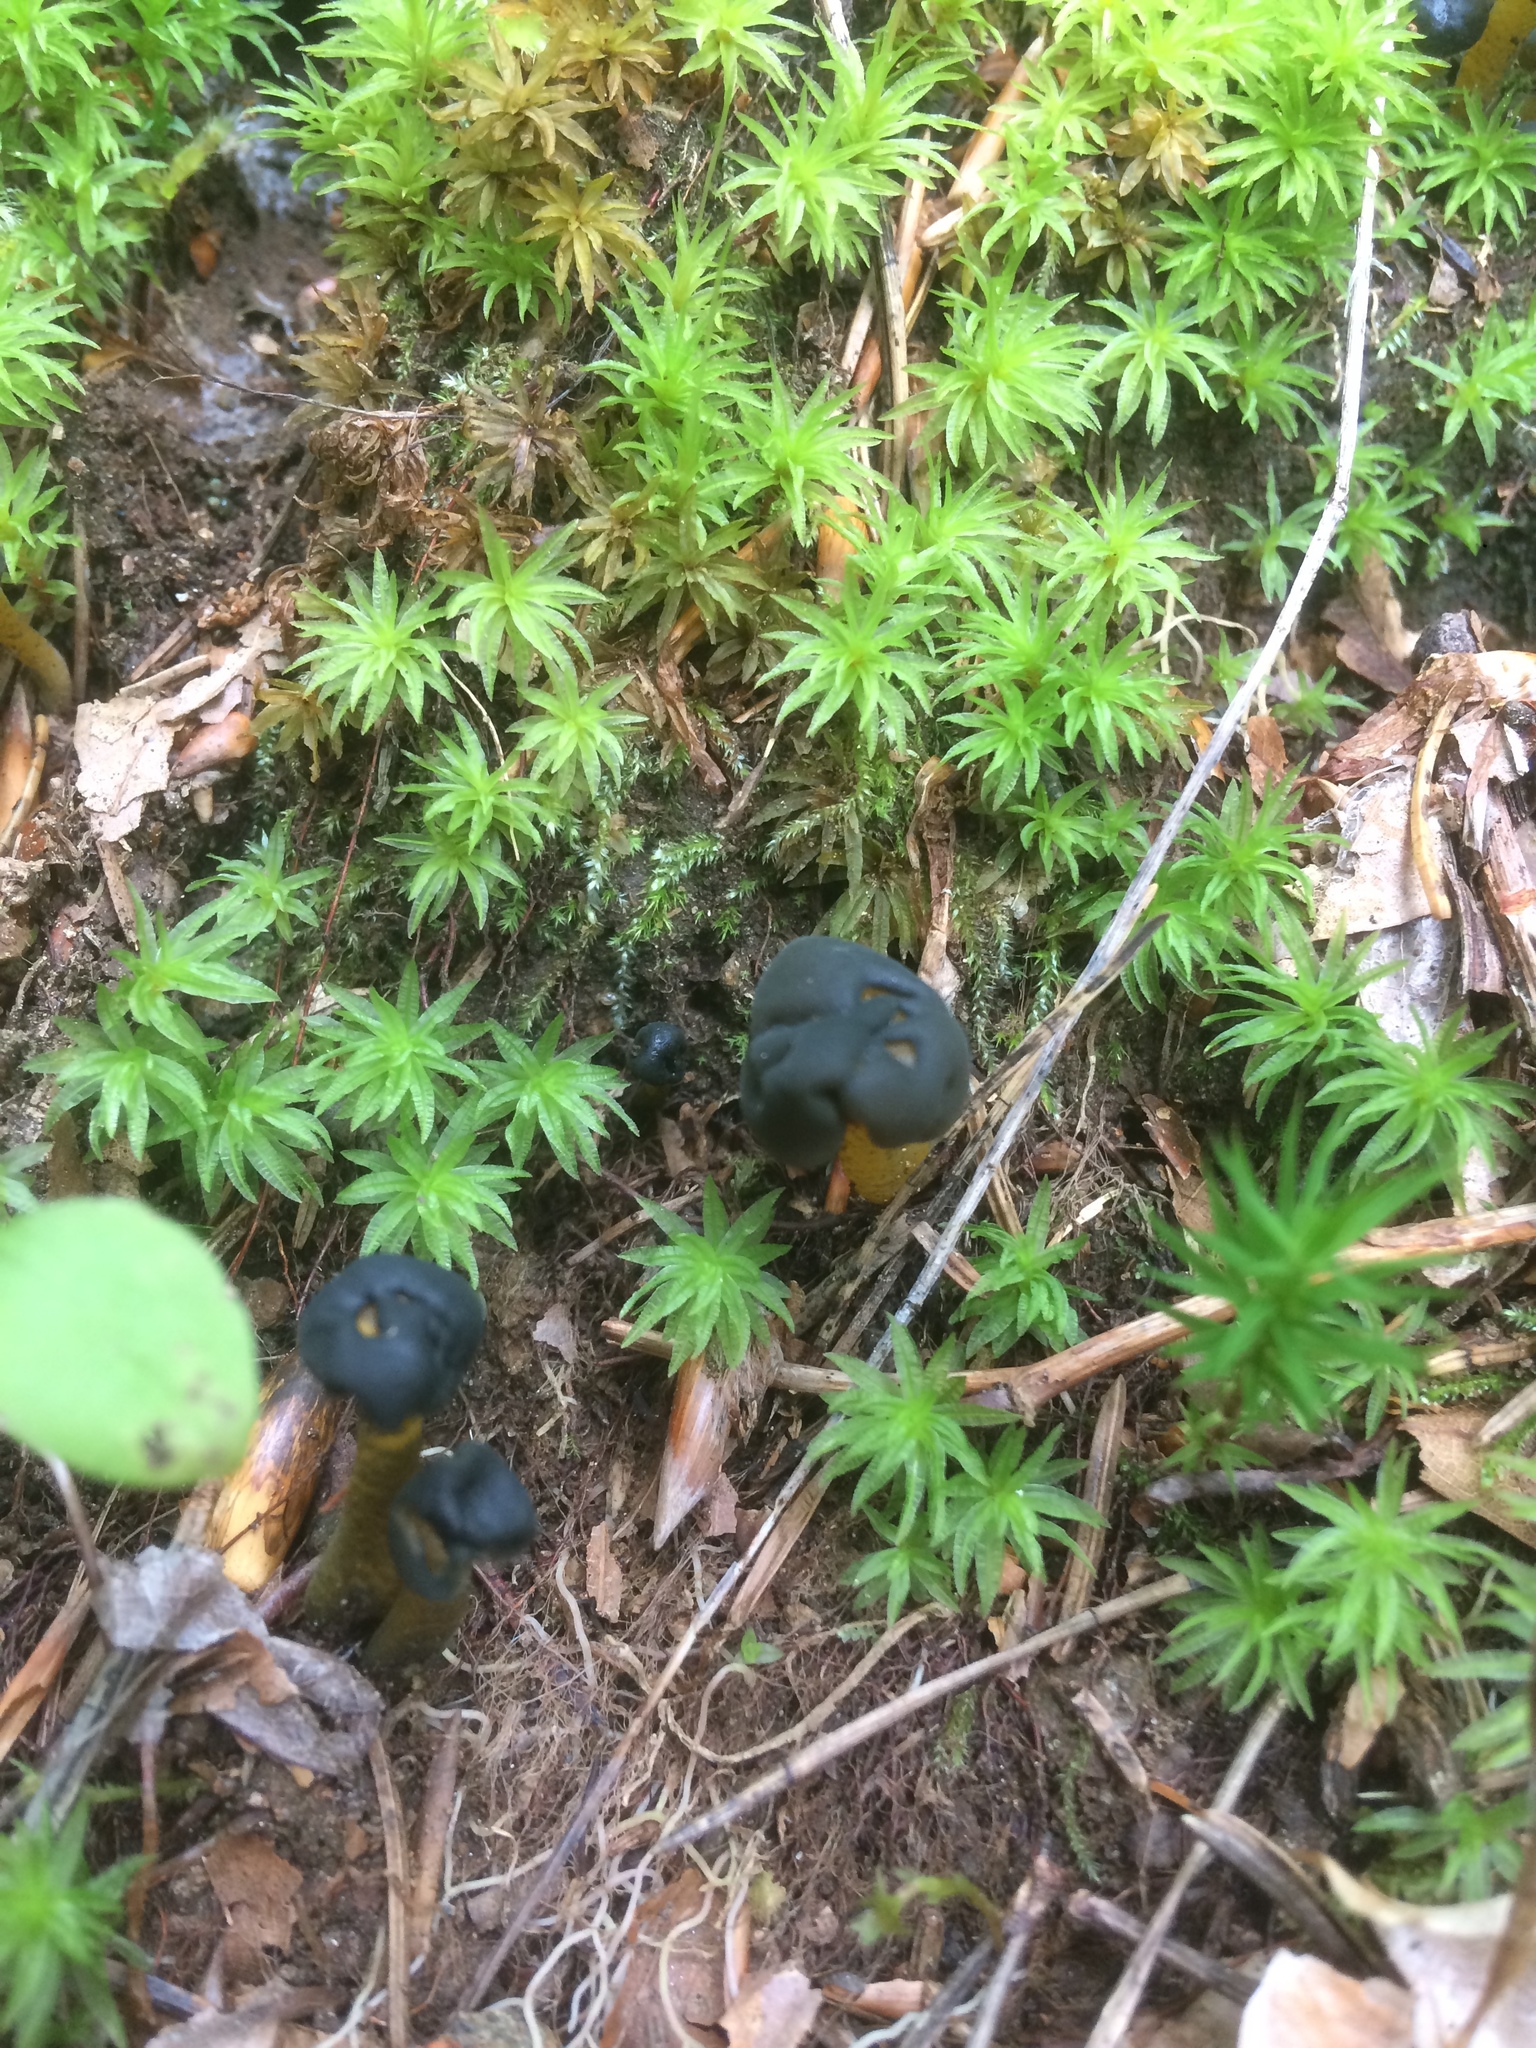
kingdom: Fungi
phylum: Ascomycota
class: Leotiomycetes
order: Leotiales
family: Leotiaceae
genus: Leotia
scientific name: Leotia lubrica
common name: Jellybaby
